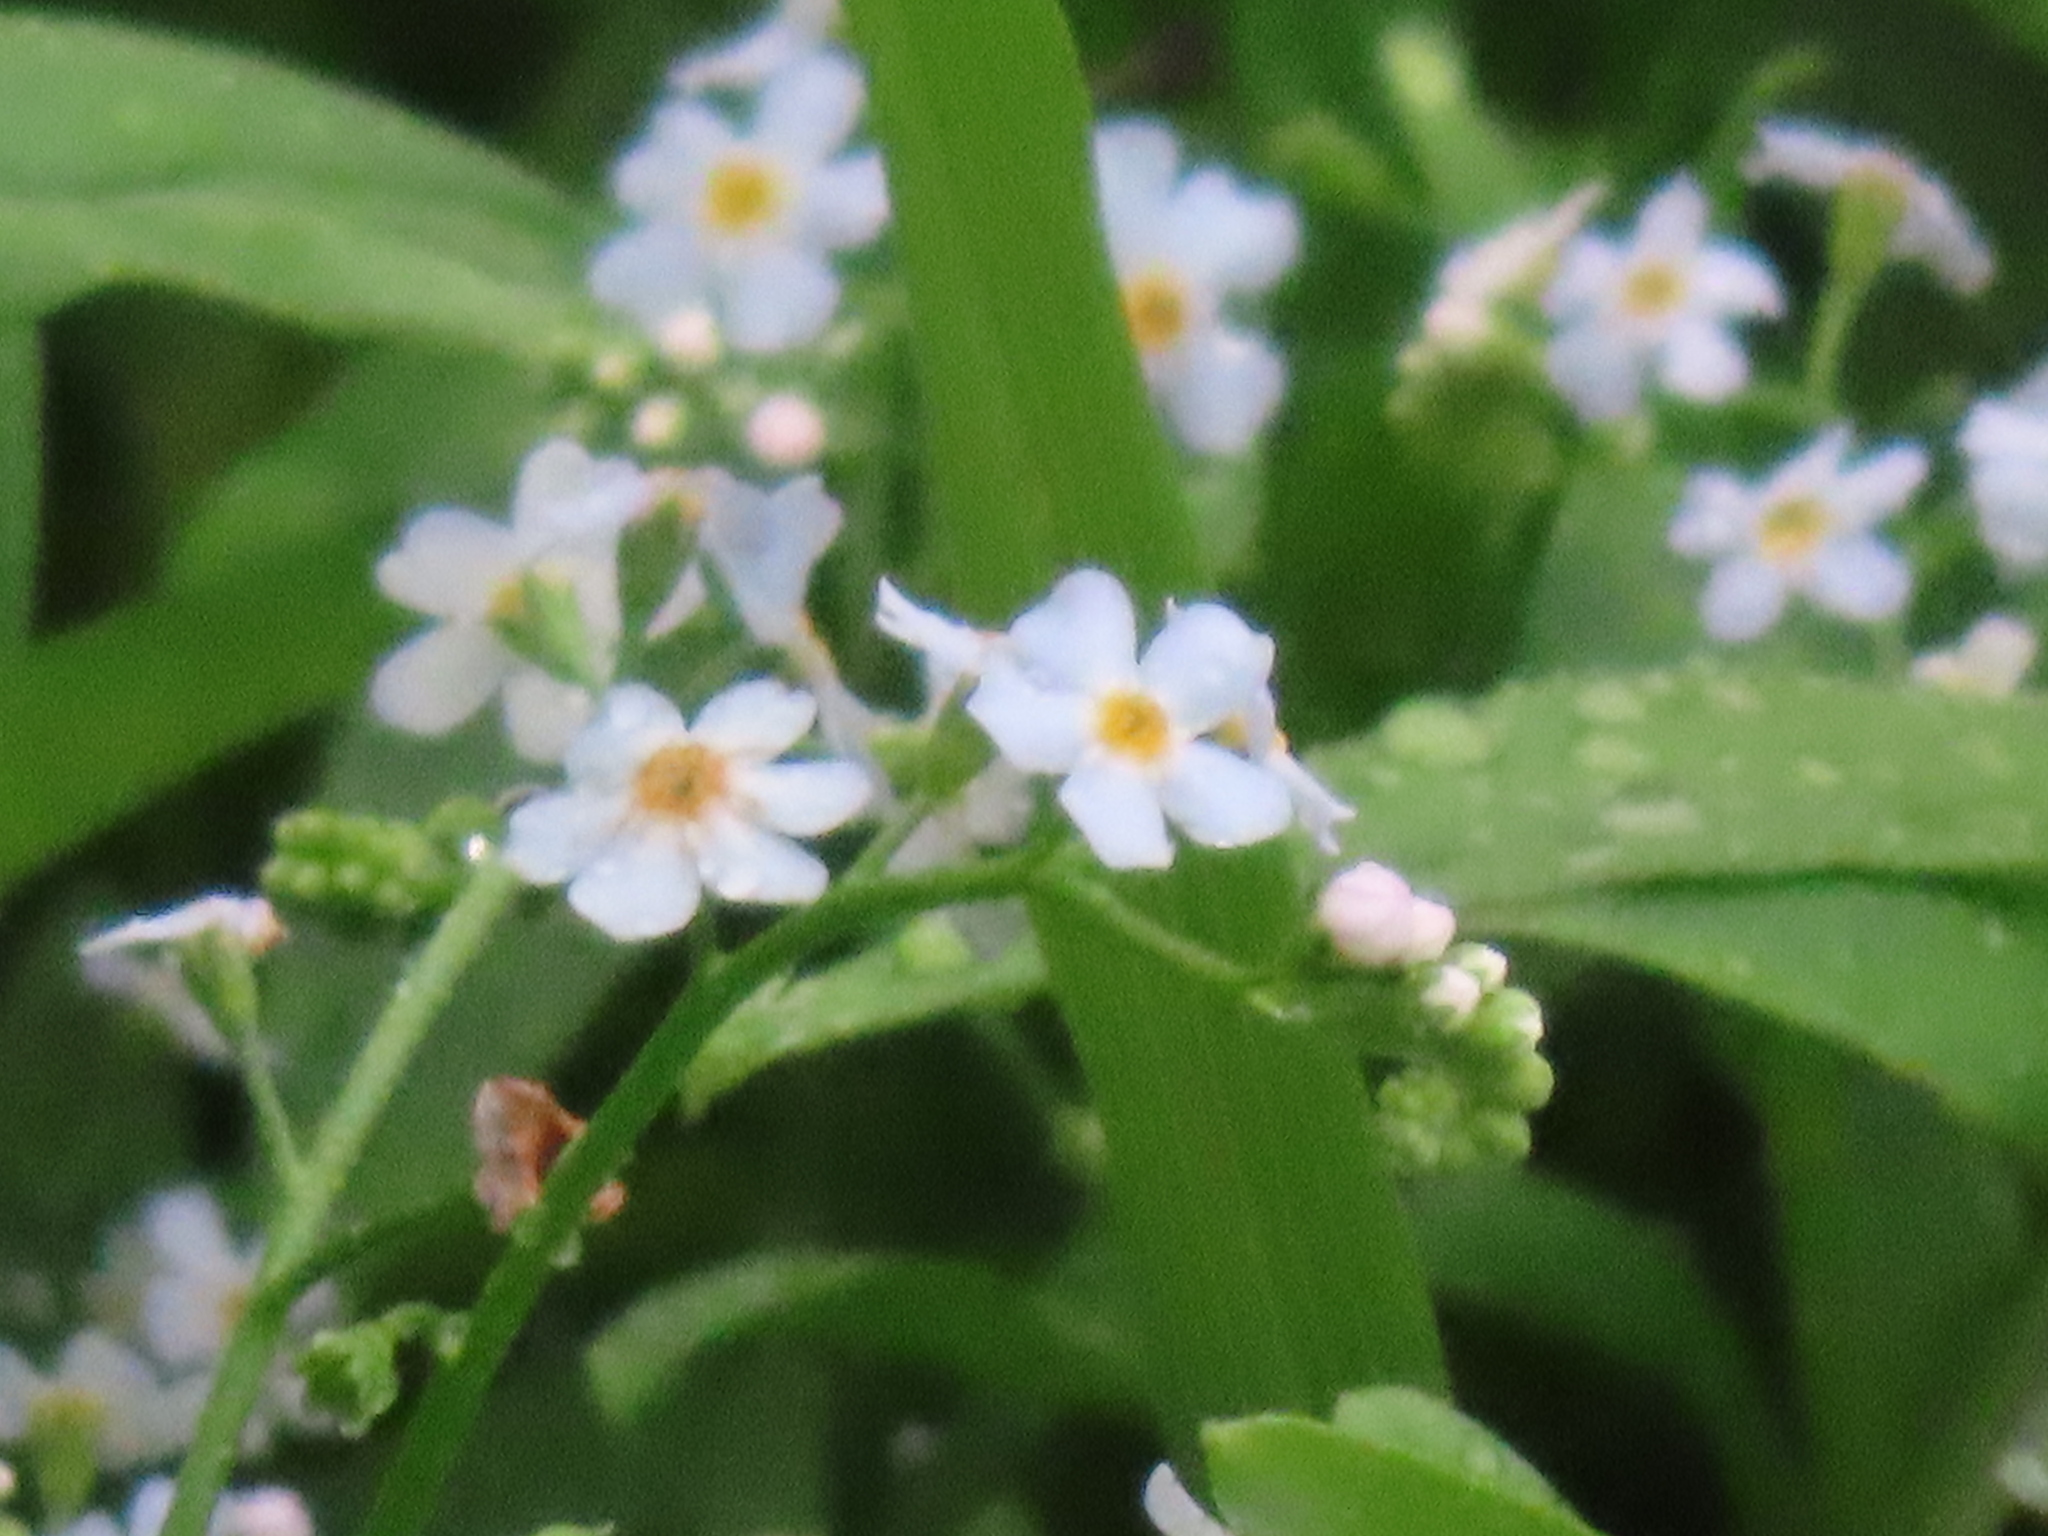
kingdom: Plantae
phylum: Tracheophyta
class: Magnoliopsida
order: Boraginales
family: Boraginaceae
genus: Myosotis
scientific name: Myosotis scorpioides
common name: Water forget-me-not
